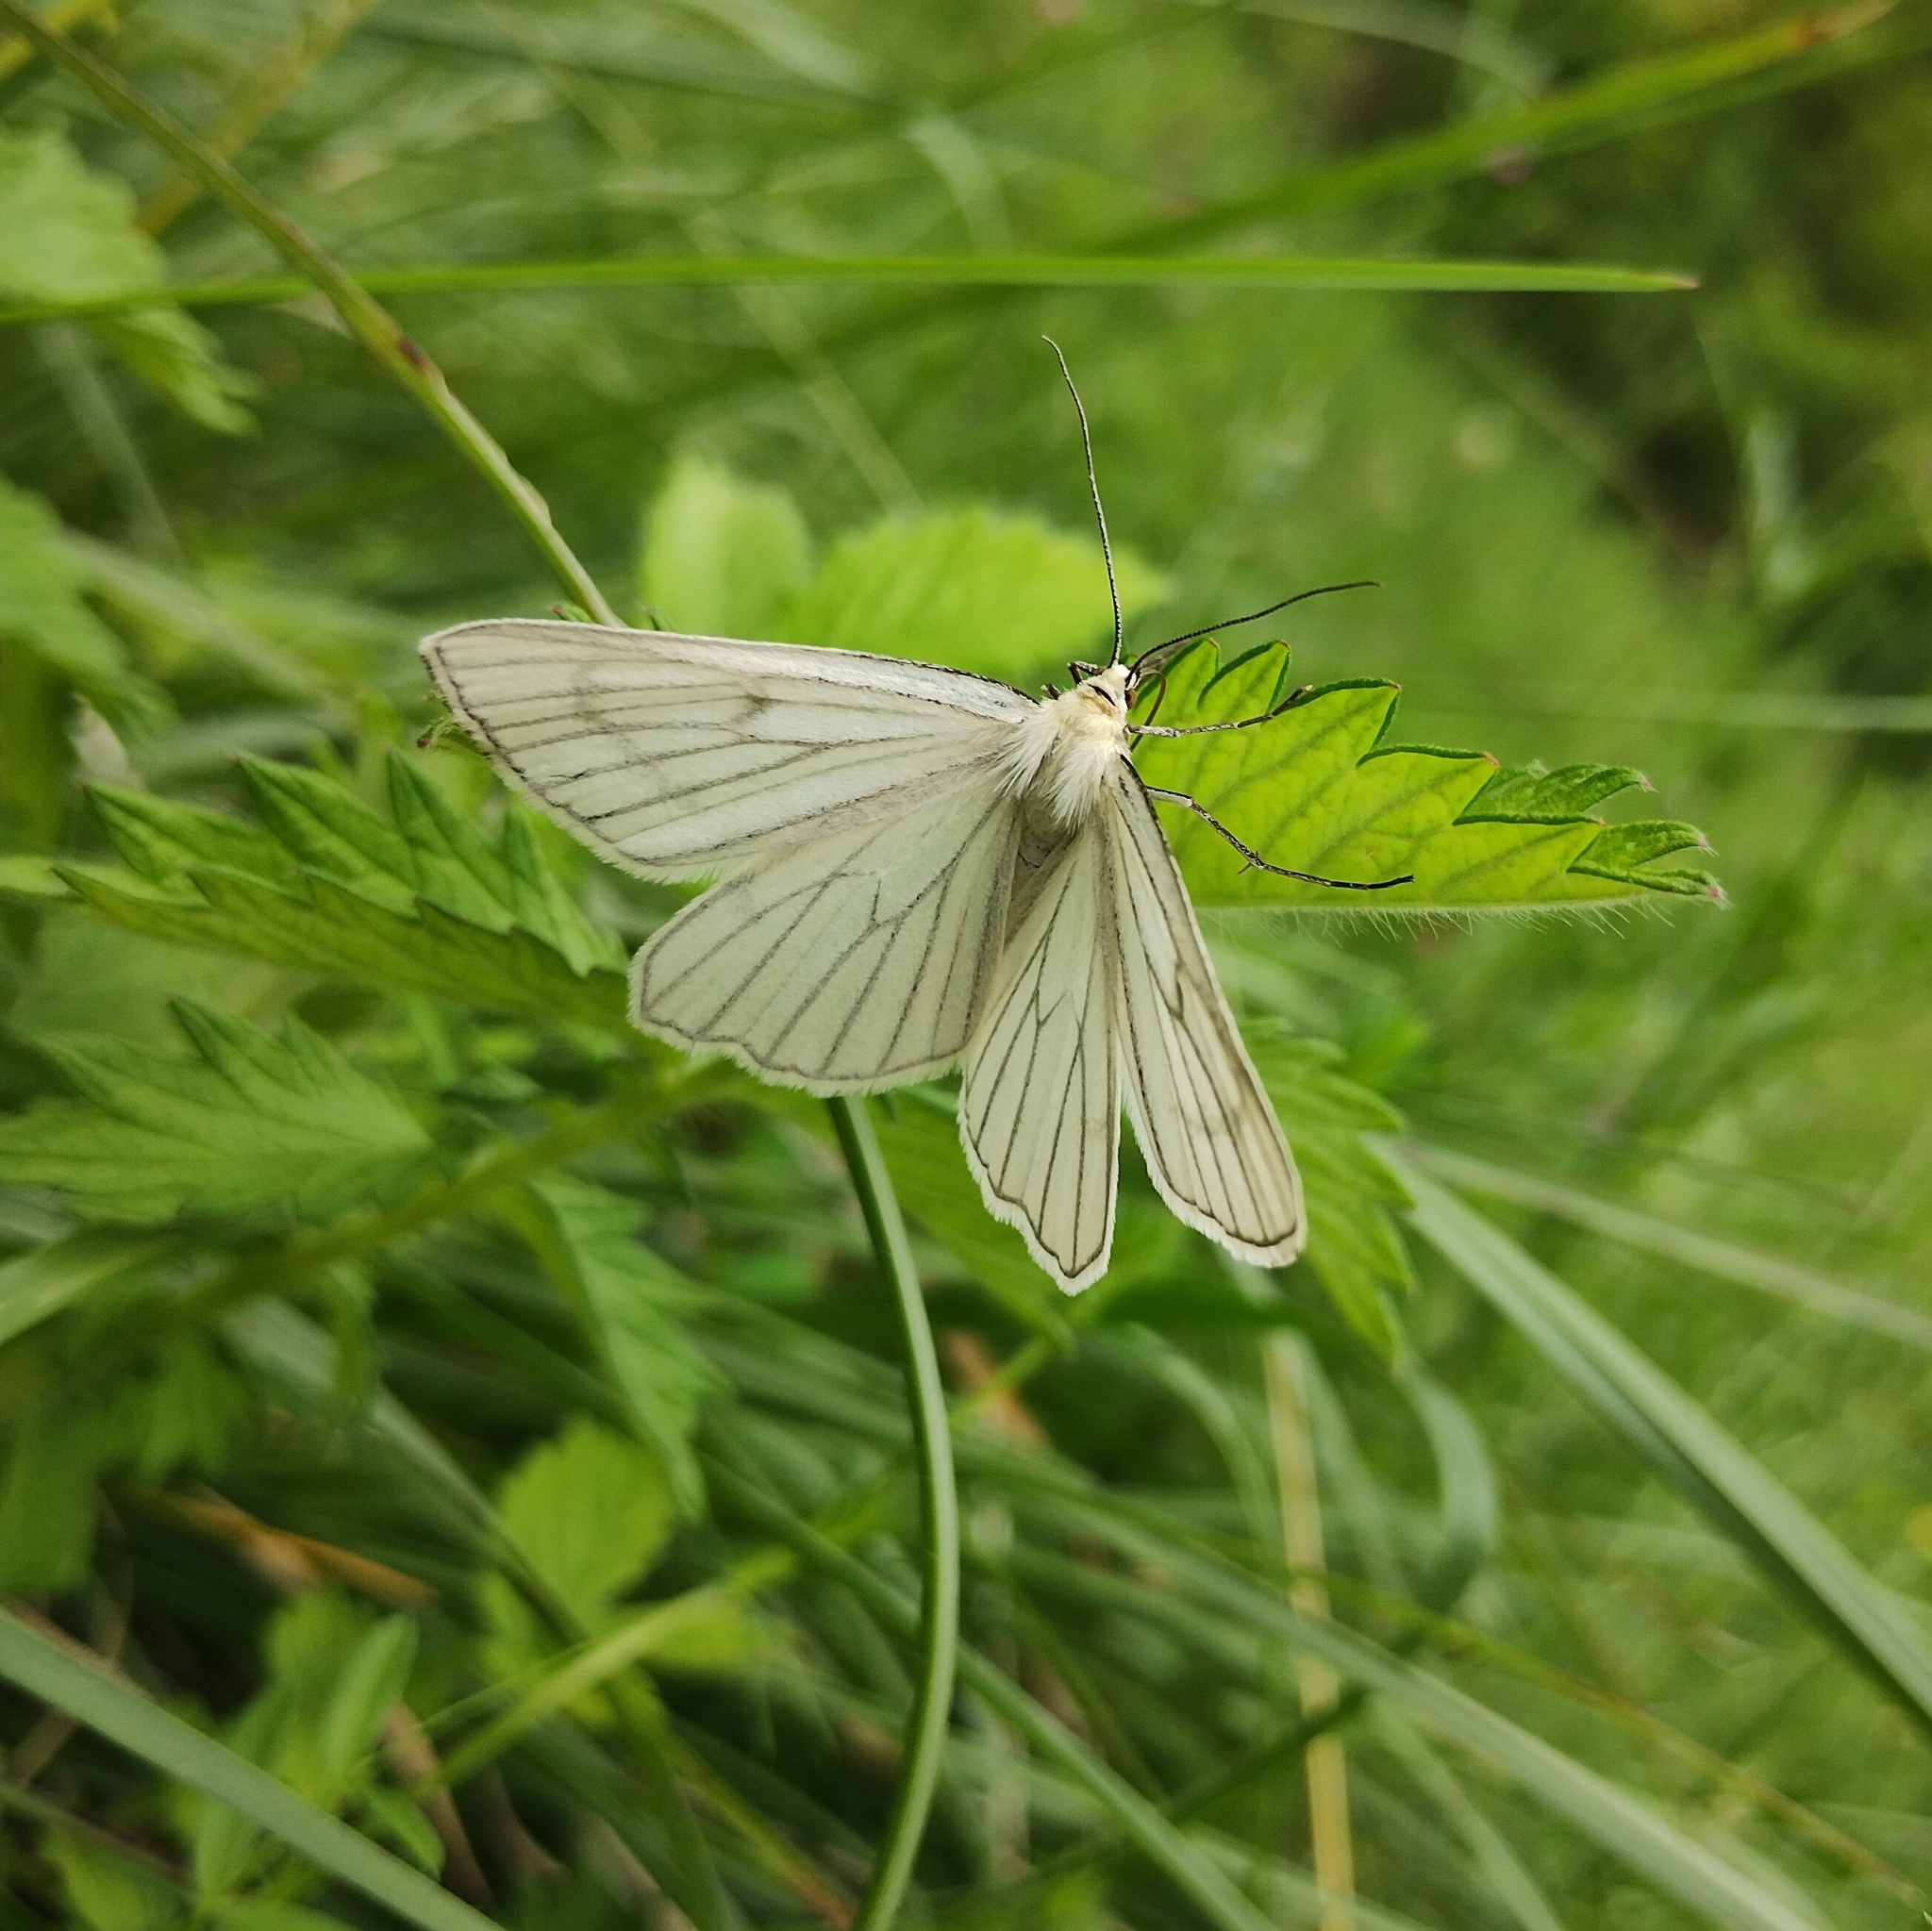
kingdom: Animalia
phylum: Arthropoda
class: Insecta
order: Lepidoptera
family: Geometridae
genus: Siona
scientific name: Siona lineata
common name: Black-veined moth
